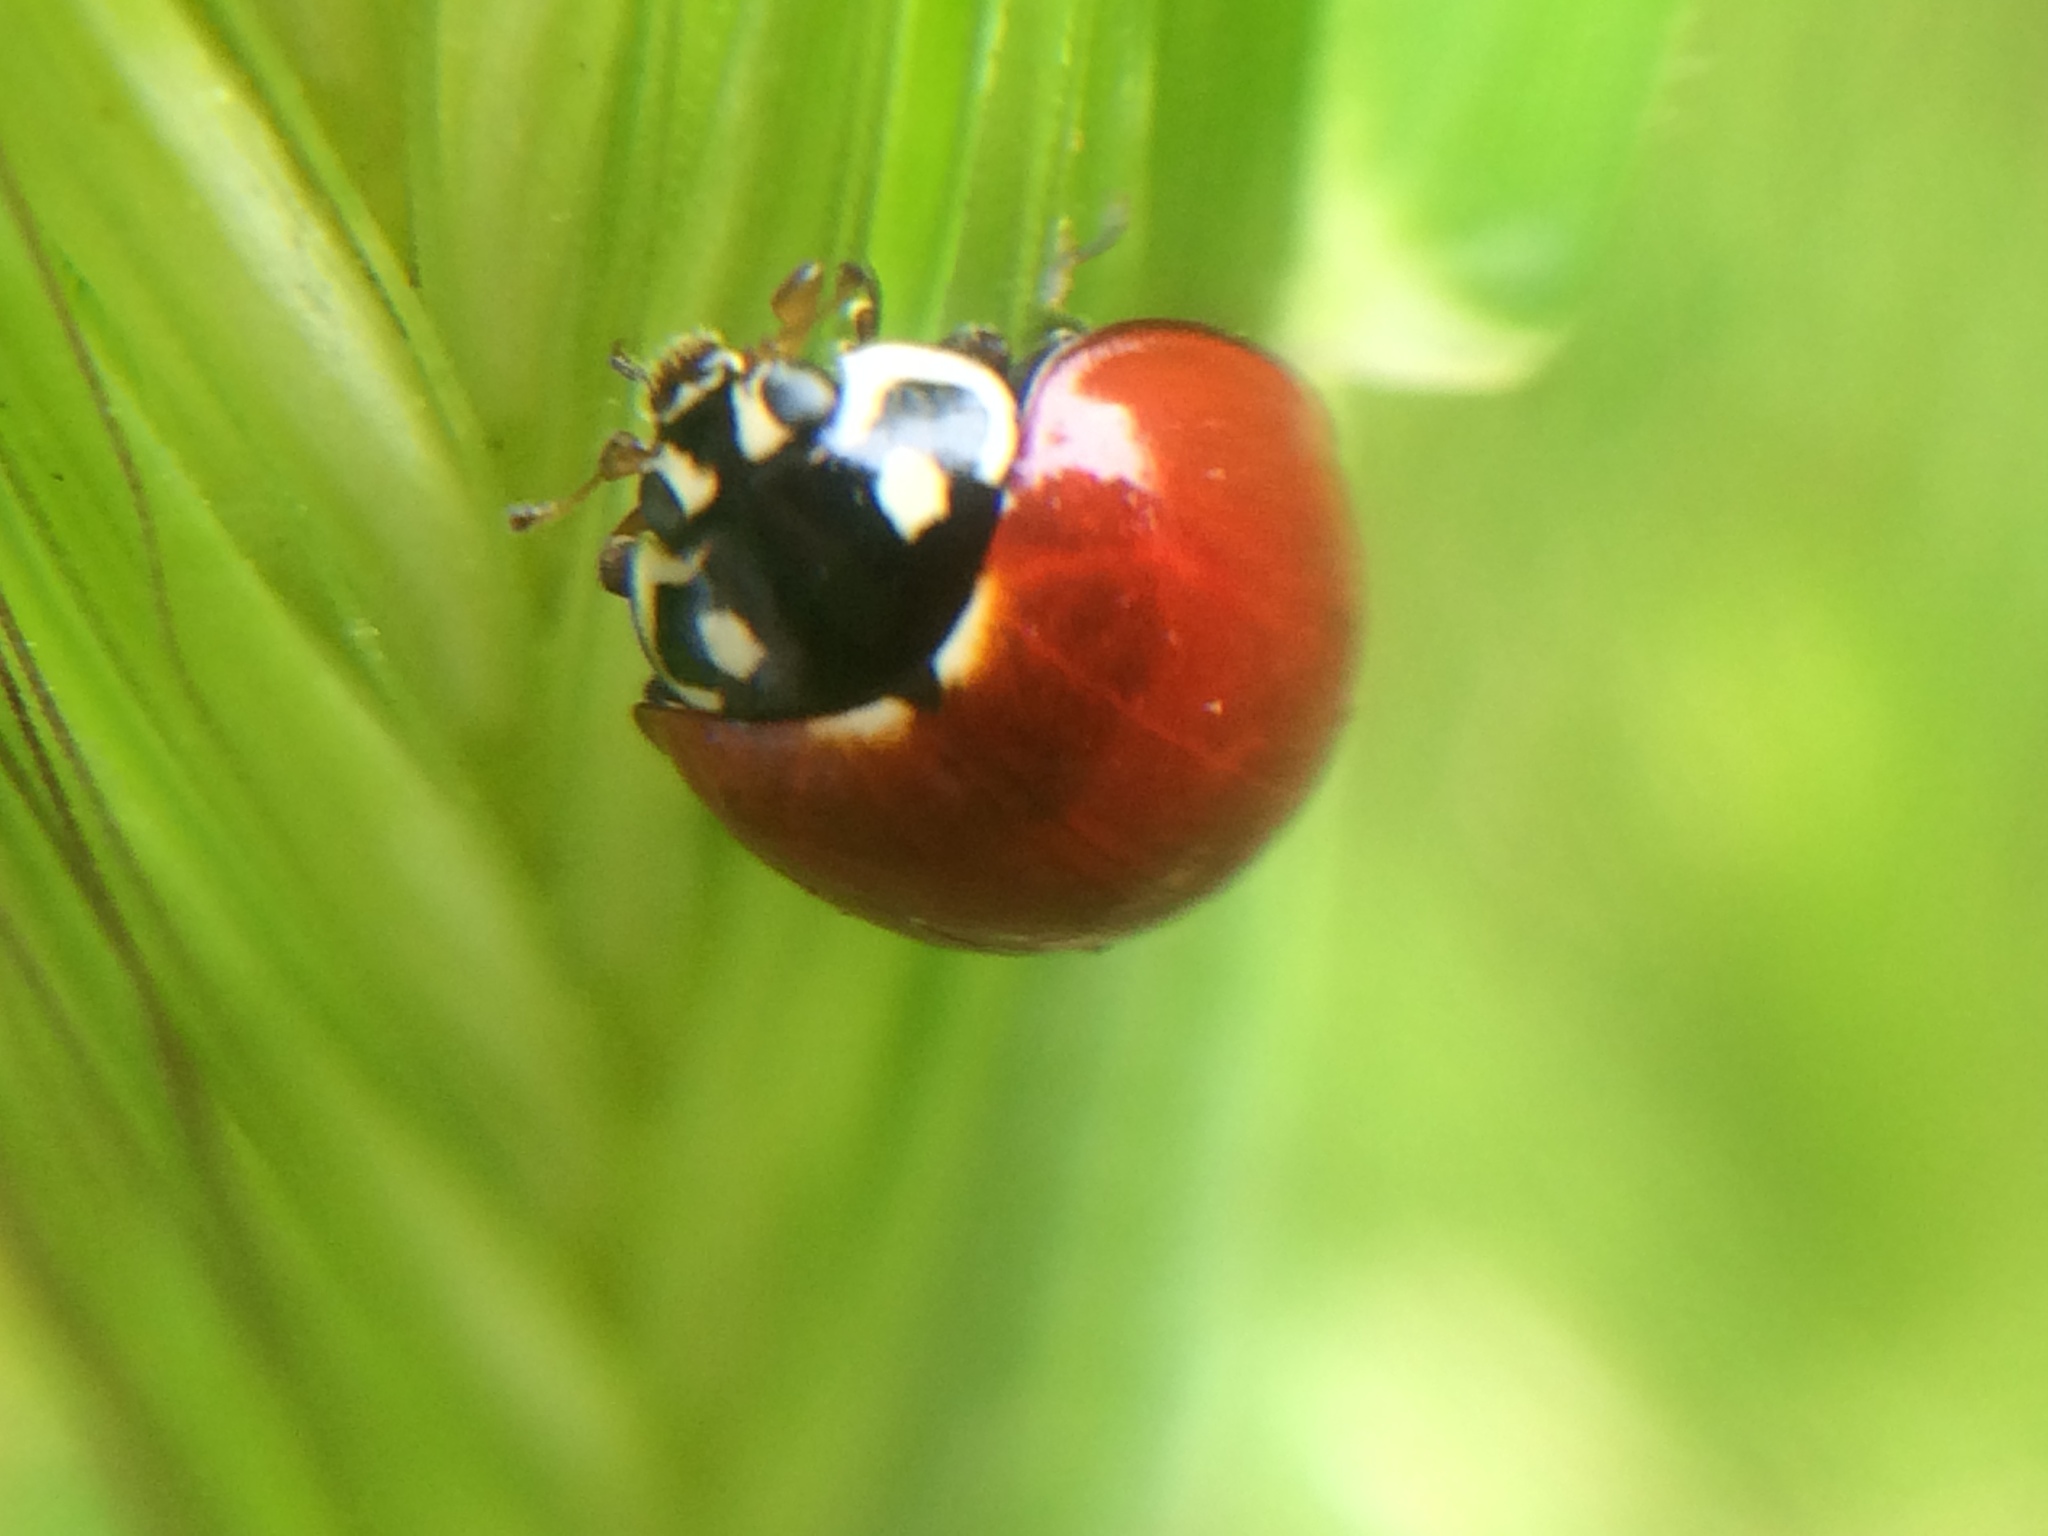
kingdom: Animalia
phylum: Arthropoda
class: Insecta
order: Coleoptera
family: Coccinellidae
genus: Cycloneda
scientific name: Cycloneda sanguinea
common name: Ladybird beetle
